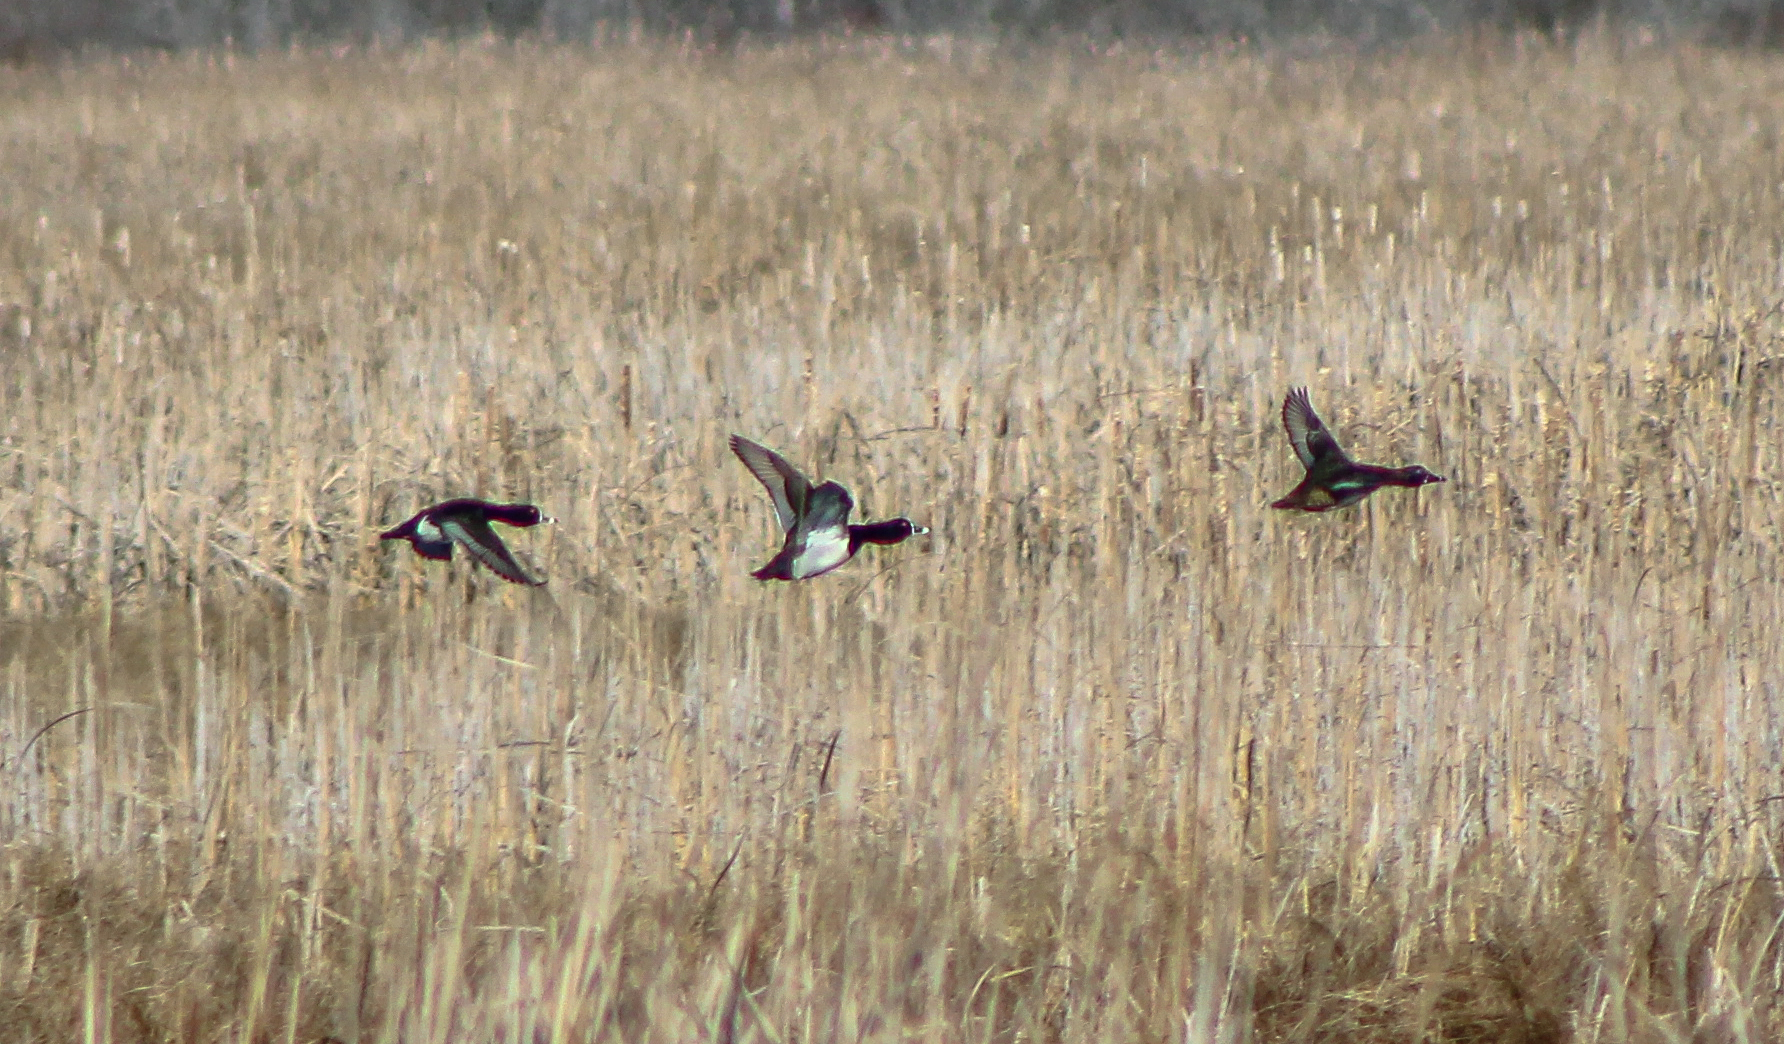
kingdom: Animalia
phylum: Chordata
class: Aves
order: Anseriformes
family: Anatidae
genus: Aythya
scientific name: Aythya collaris
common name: Ring-necked duck
